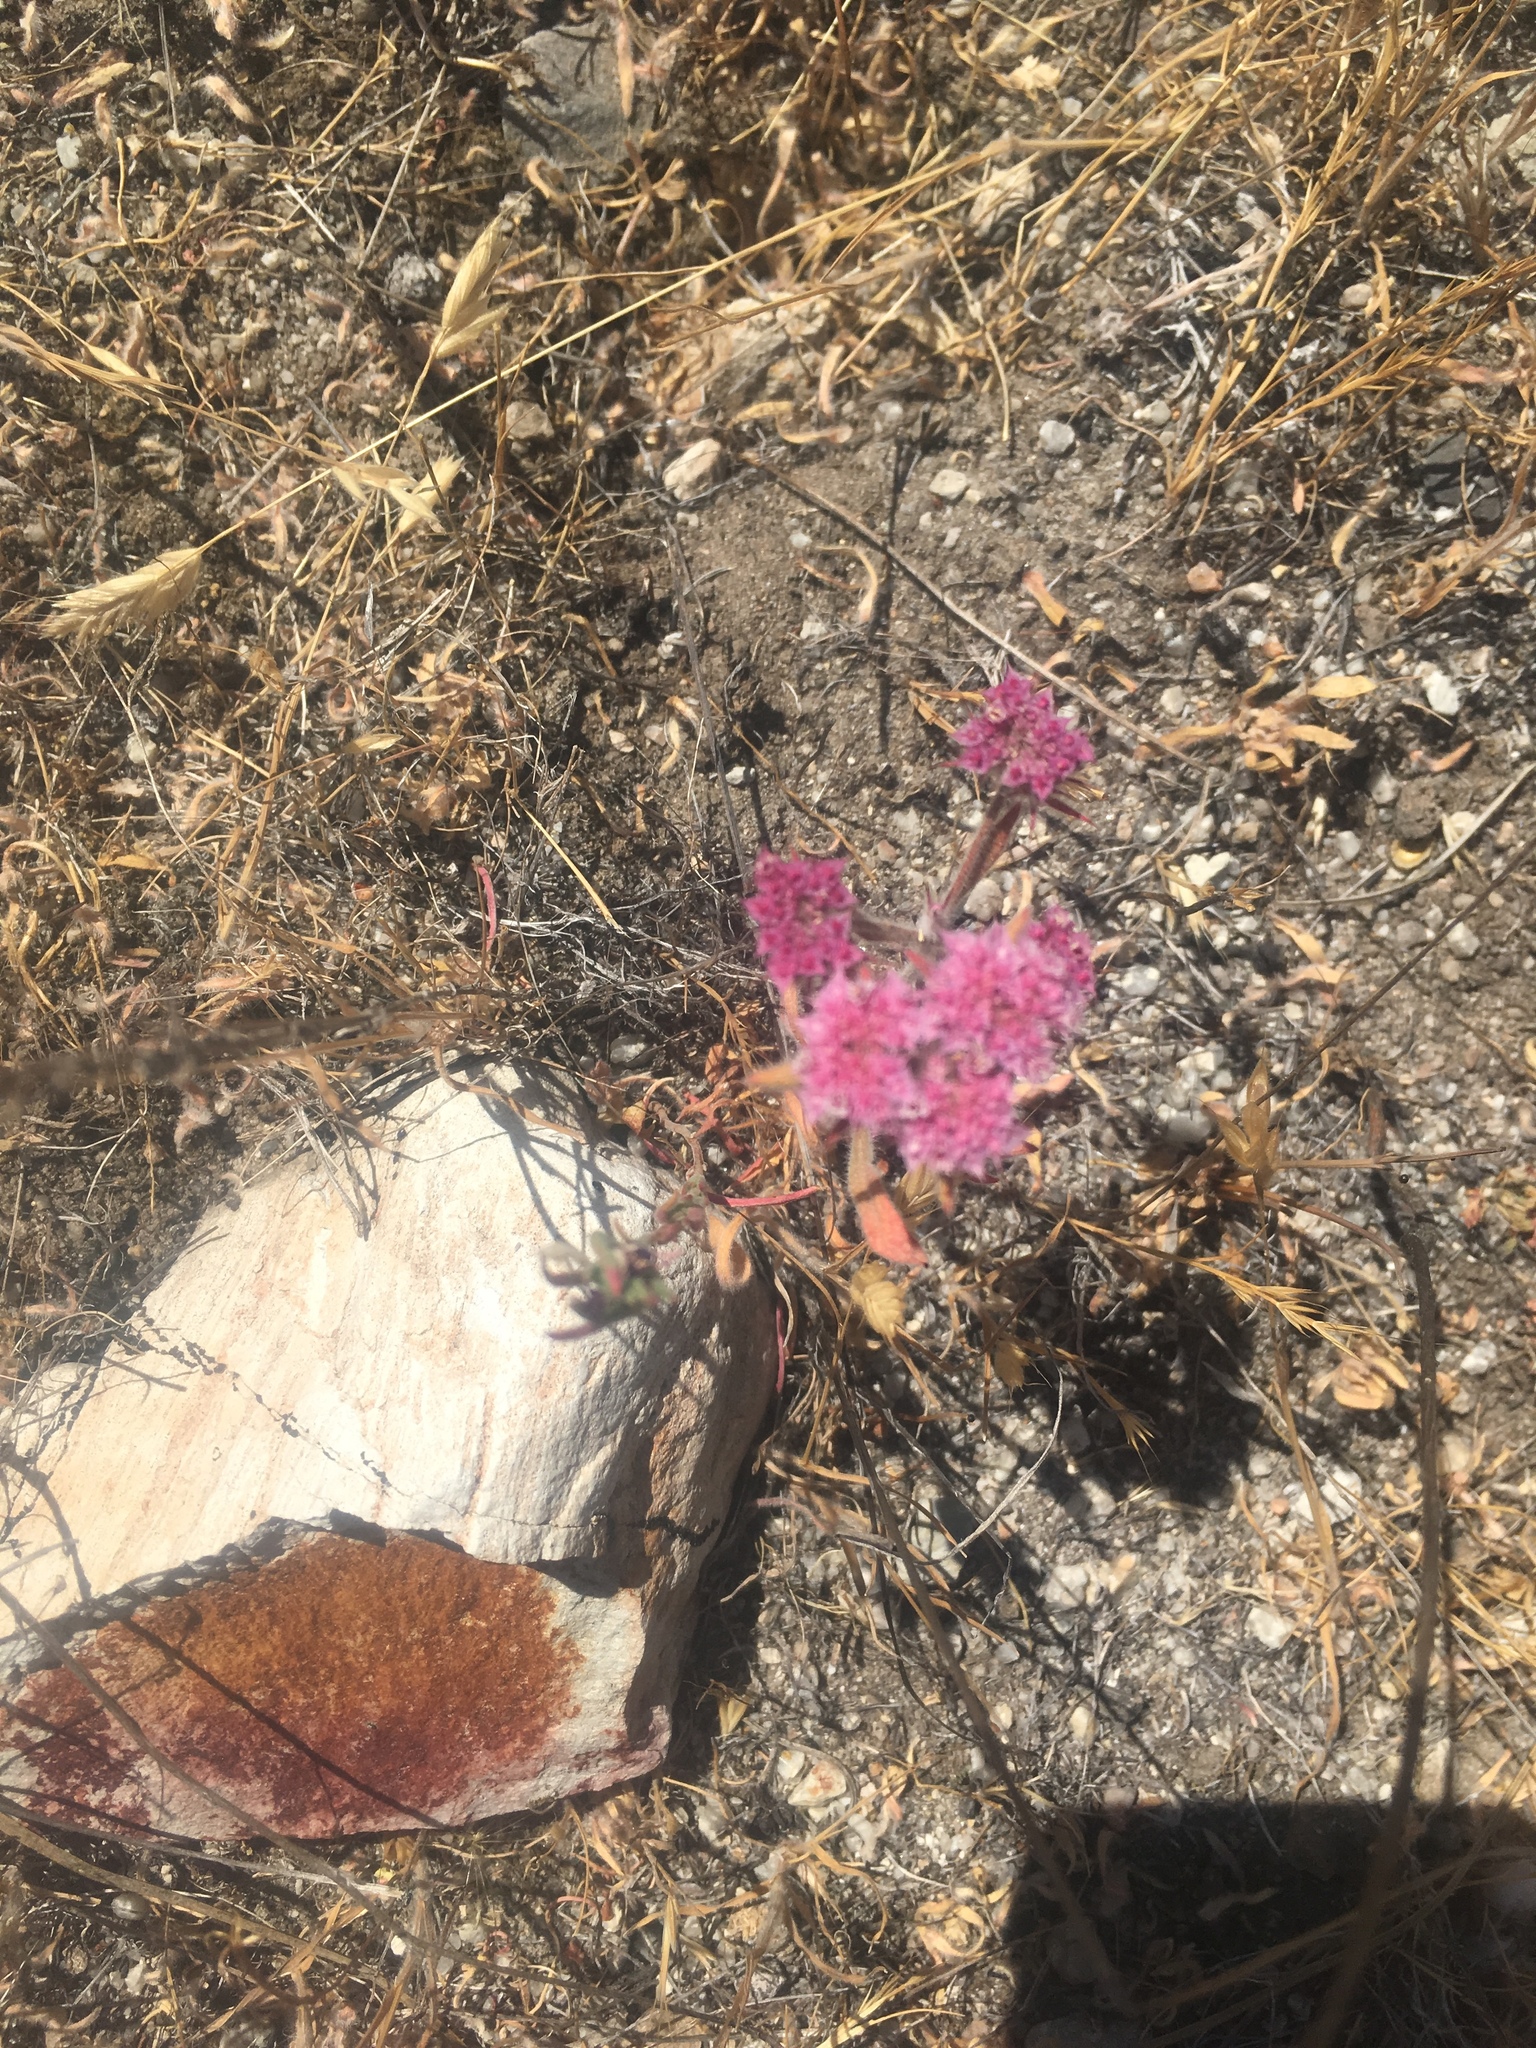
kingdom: Plantae
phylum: Tracheophyta
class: Magnoliopsida
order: Caryophyllales
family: Polygonaceae
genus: Chorizanthe
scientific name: Chorizanthe douglasii
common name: Douglas's spineflower
